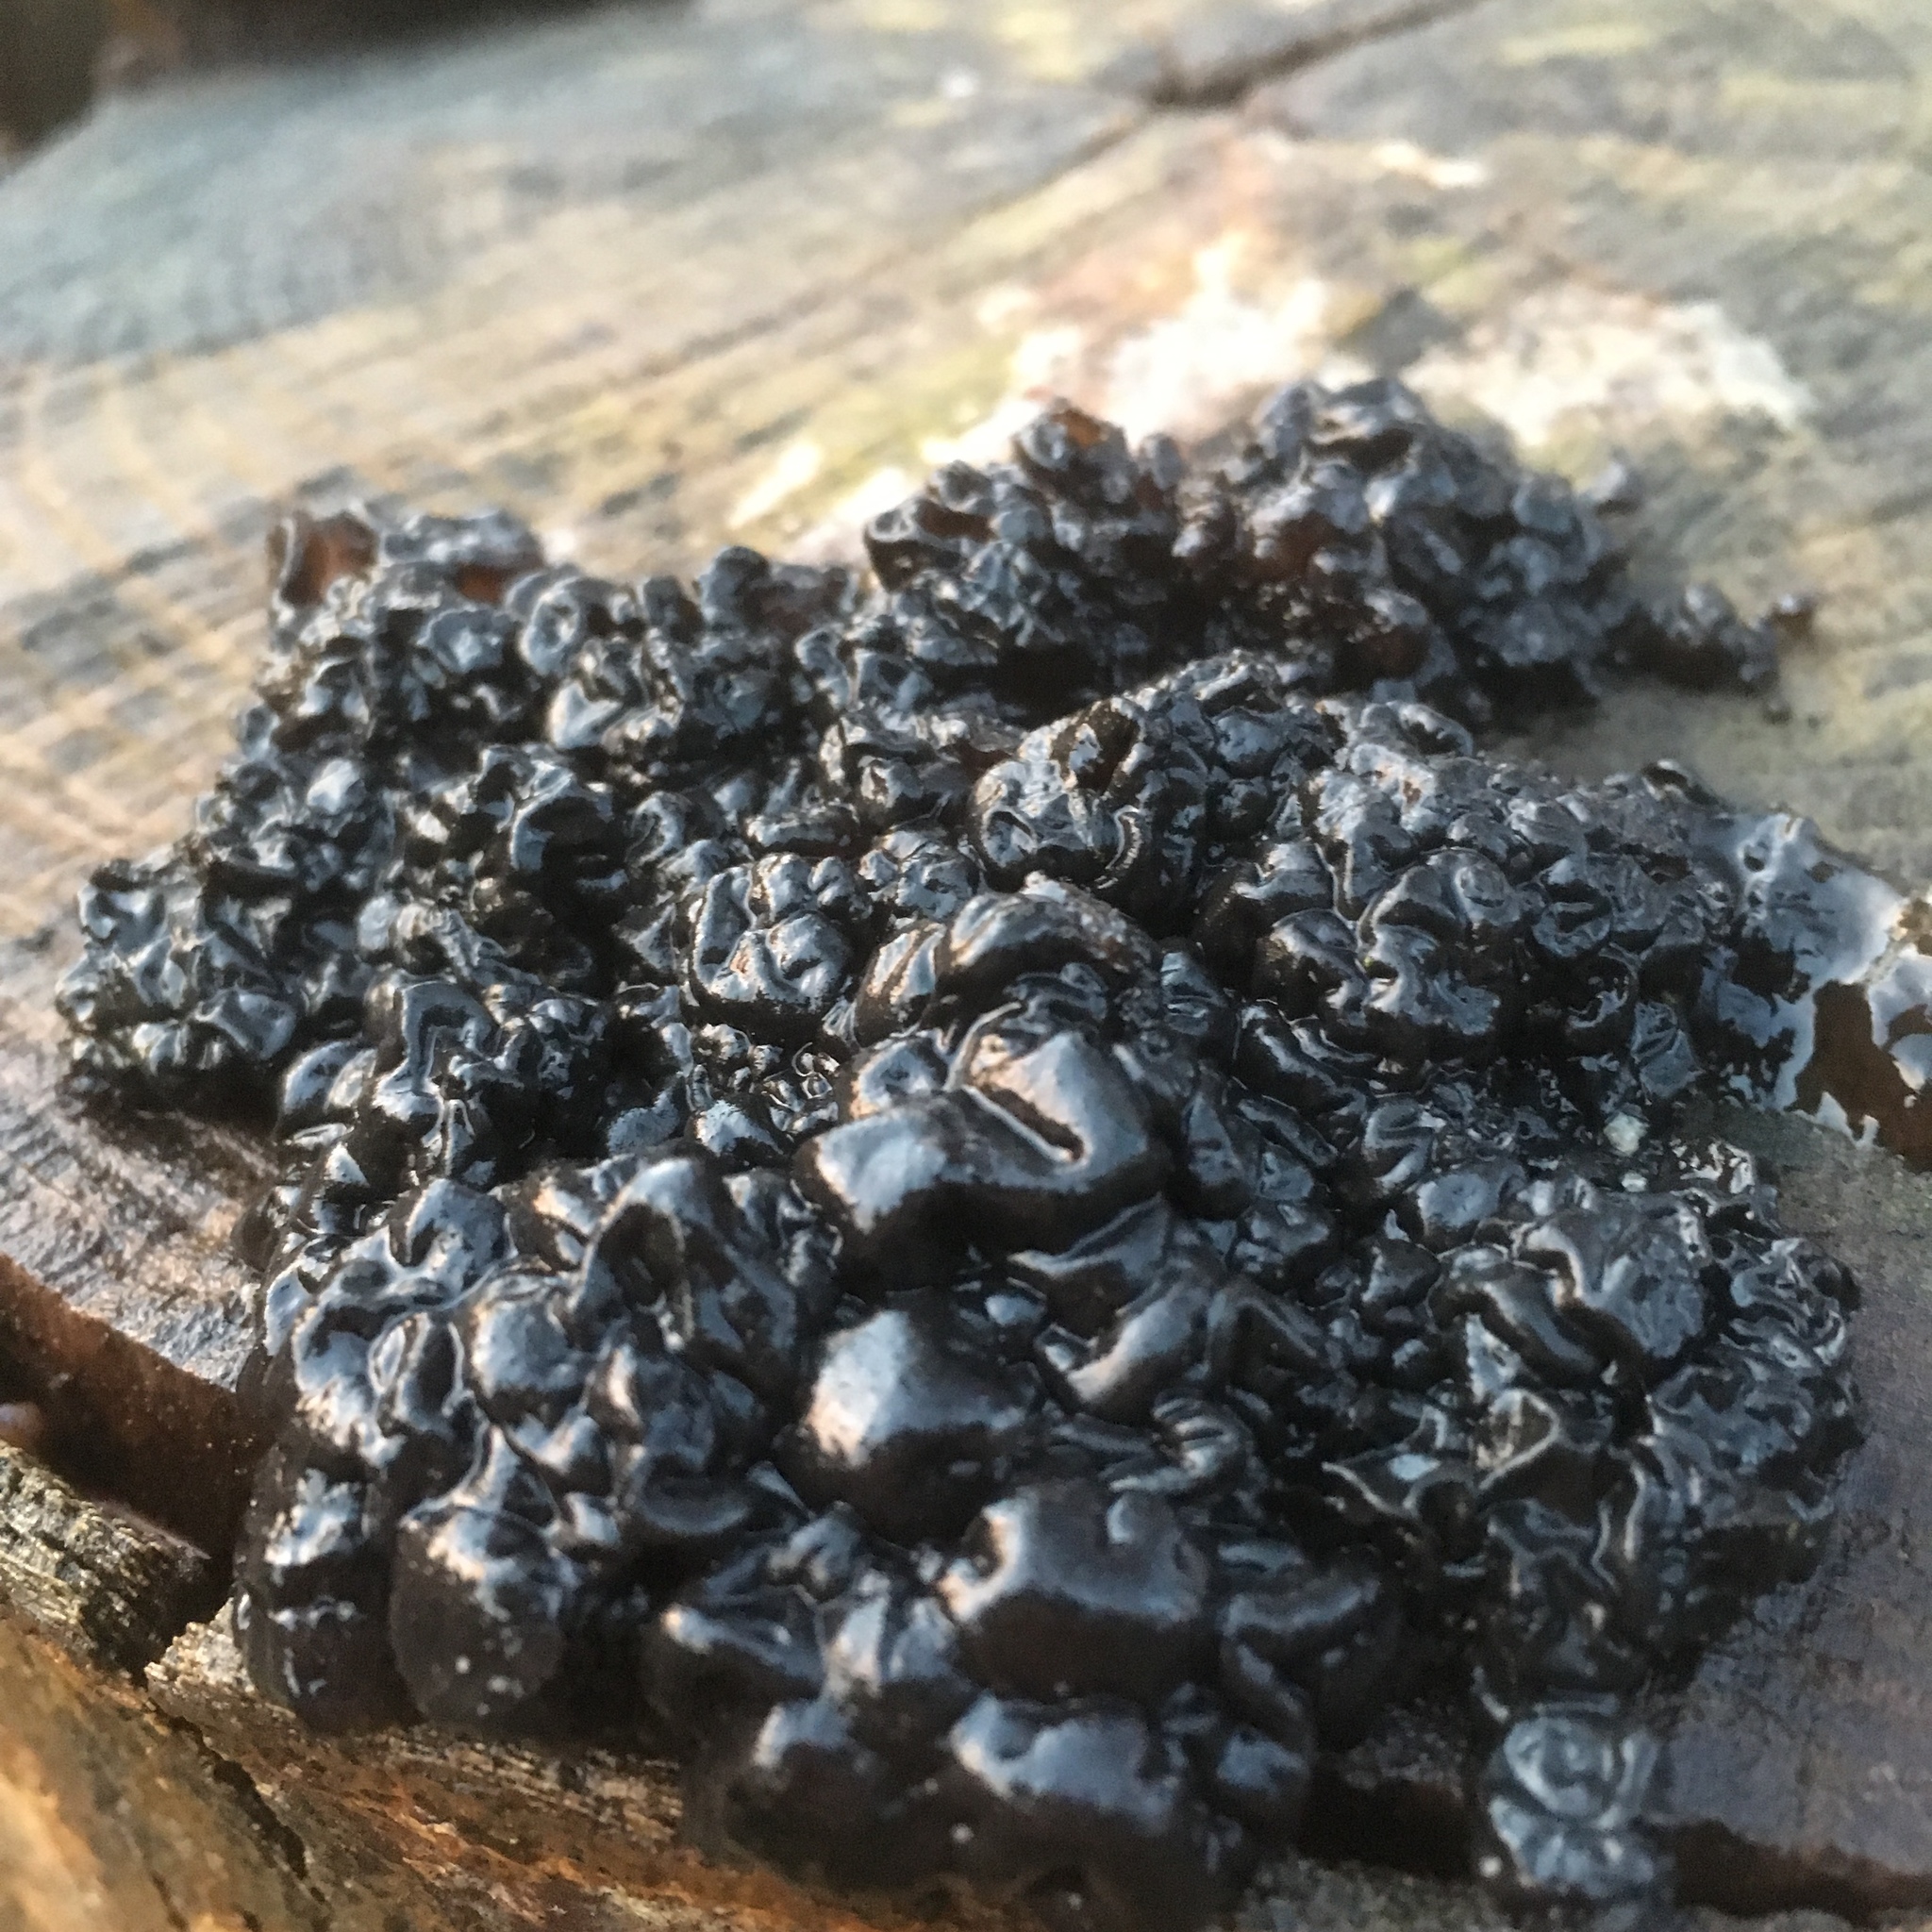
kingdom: Fungi
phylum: Basidiomycota
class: Agaricomycetes
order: Auriculariales
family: Auriculariaceae
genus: Exidia
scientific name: Exidia glandulosa
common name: Witches' butter
